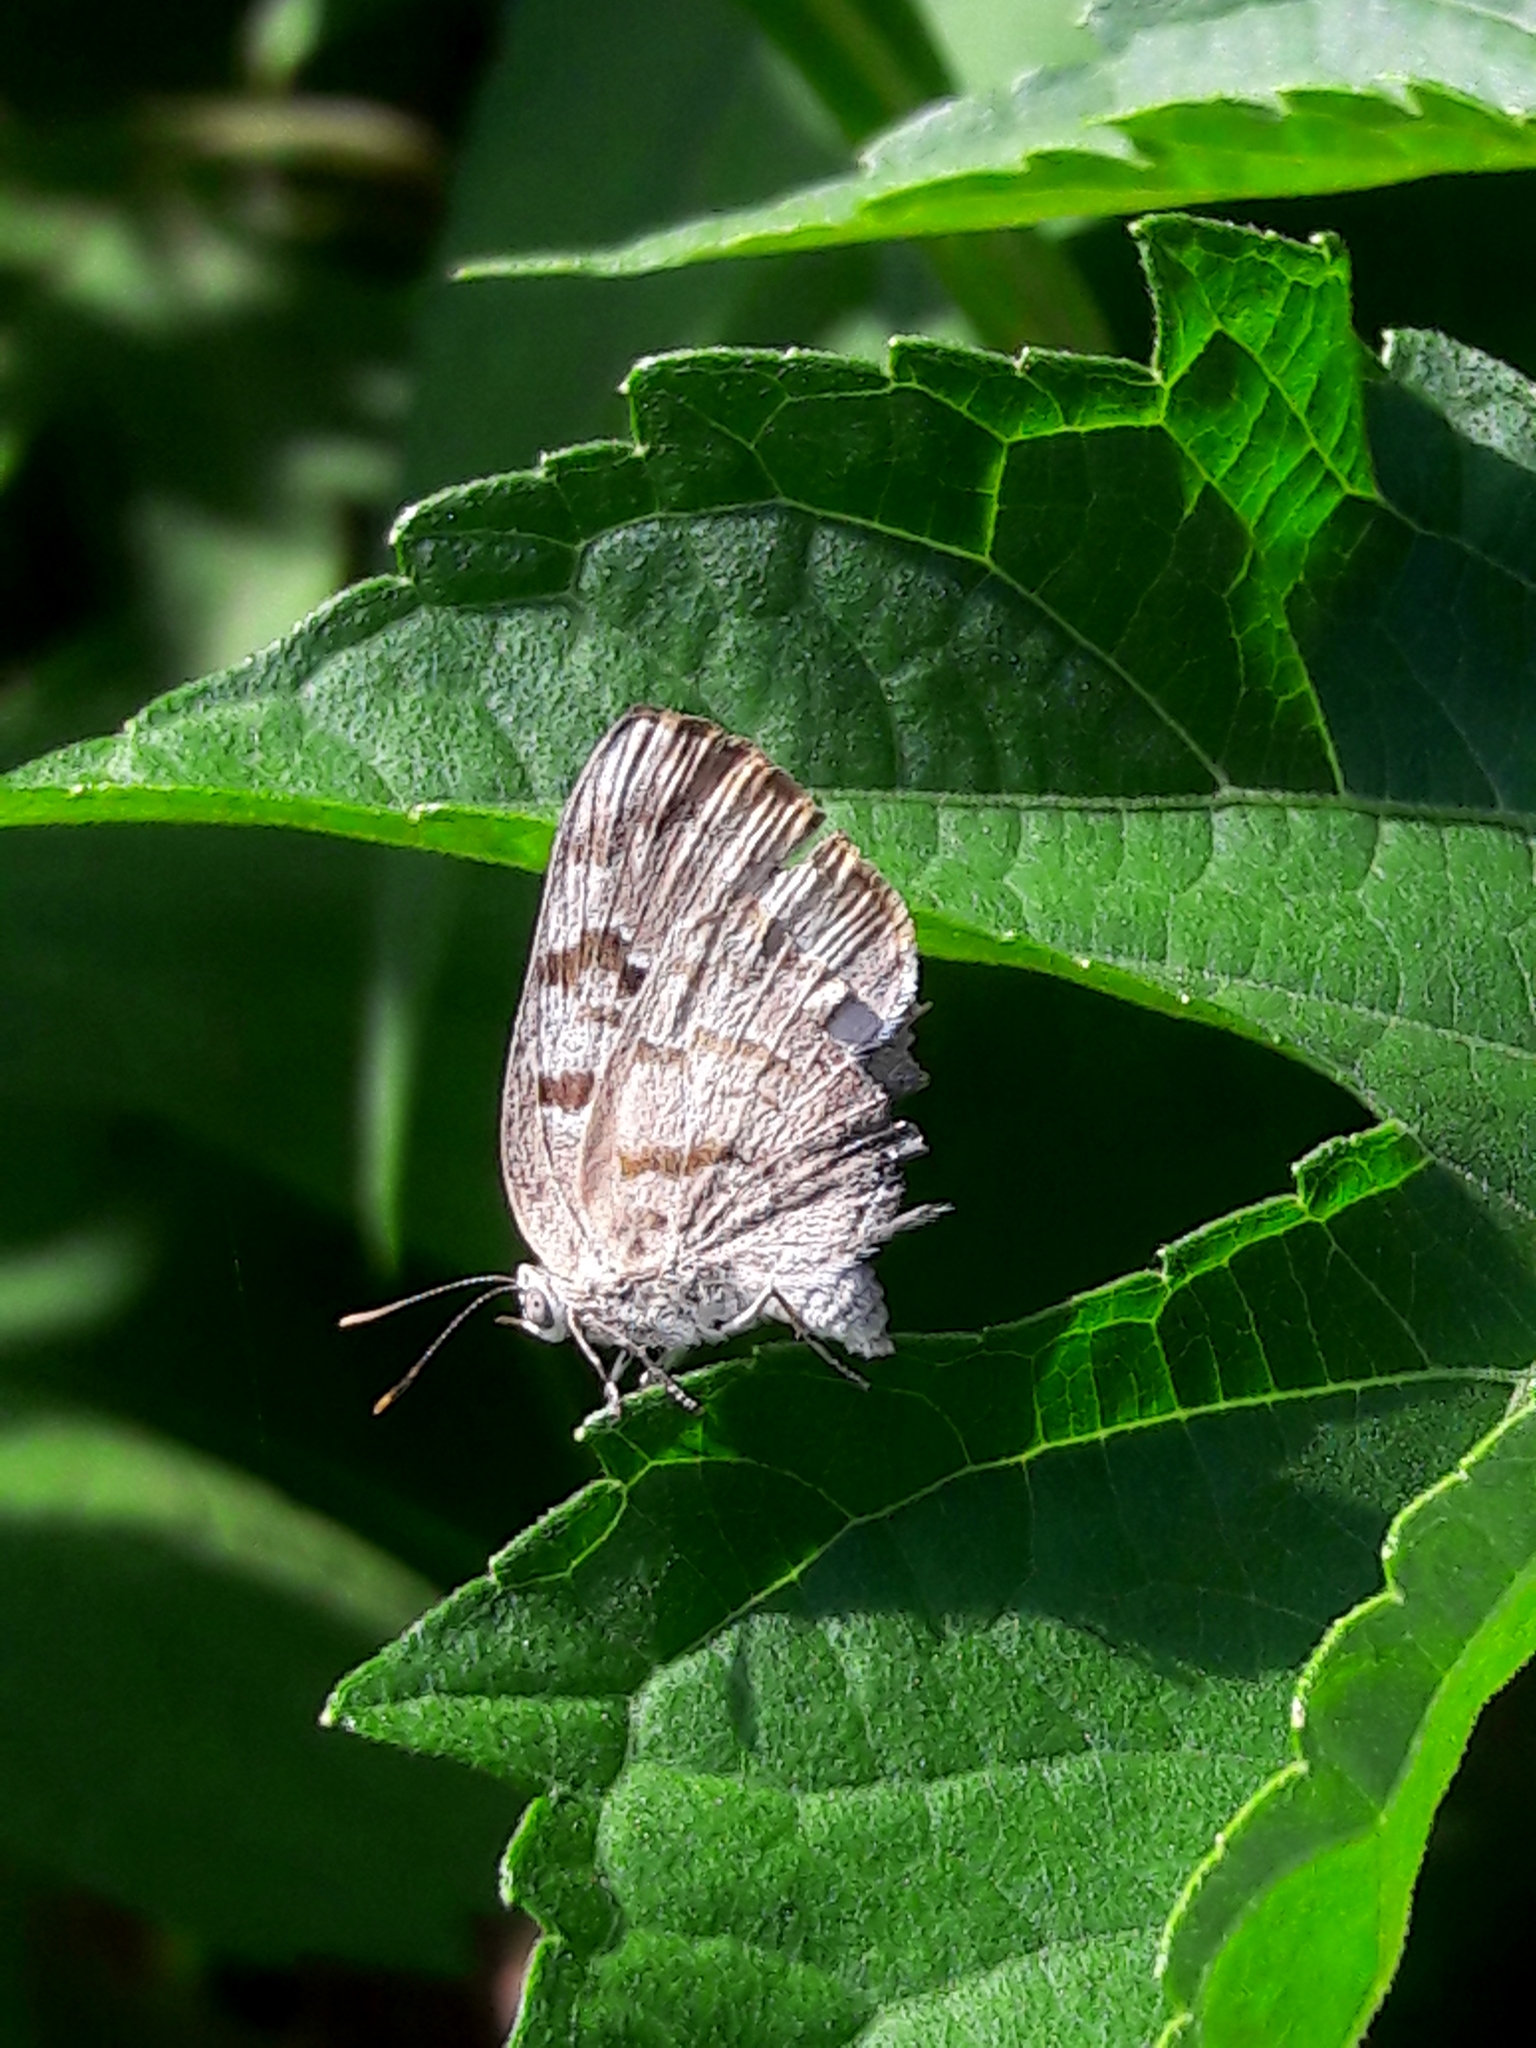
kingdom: Animalia
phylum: Arthropoda
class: Insecta
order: Lepidoptera
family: Lycaenidae
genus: Rekoa
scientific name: Rekoa palegon
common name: Gold-bordered hairstreak
